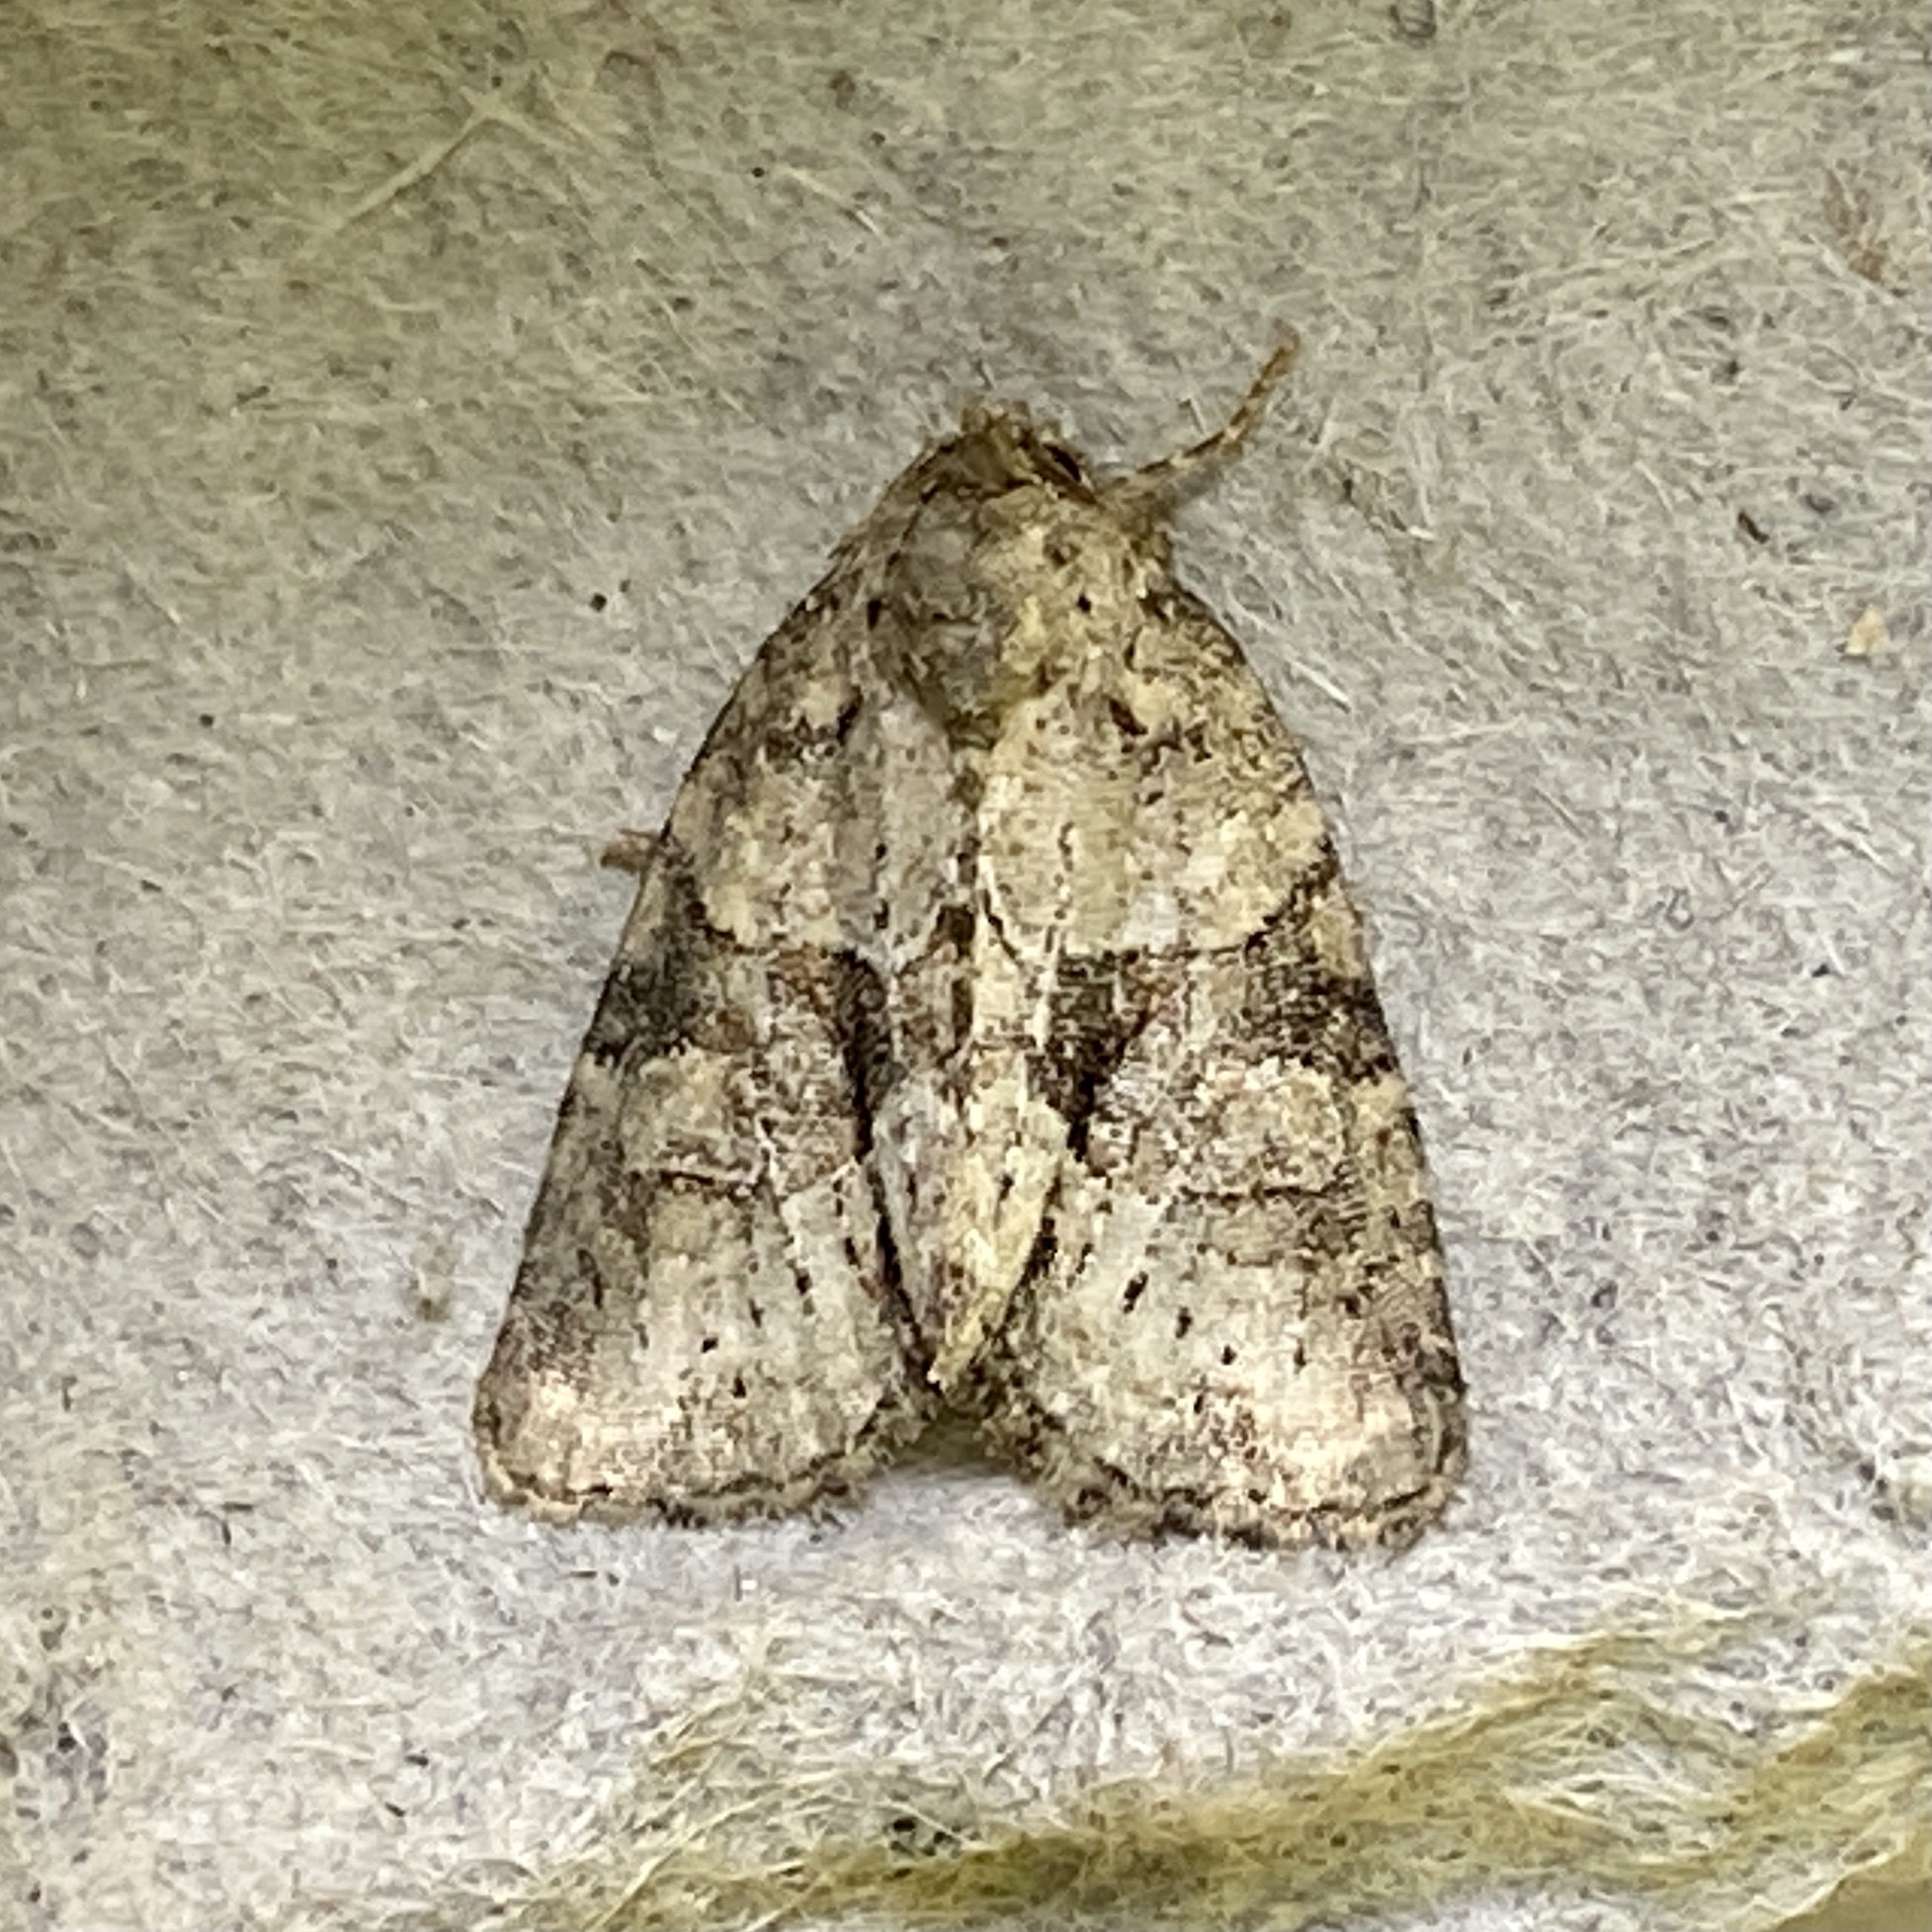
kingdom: Animalia
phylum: Arthropoda
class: Insecta
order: Lepidoptera
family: Noctuidae
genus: Neoligia
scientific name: Neoligia exhausta
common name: Exhausted brocade
